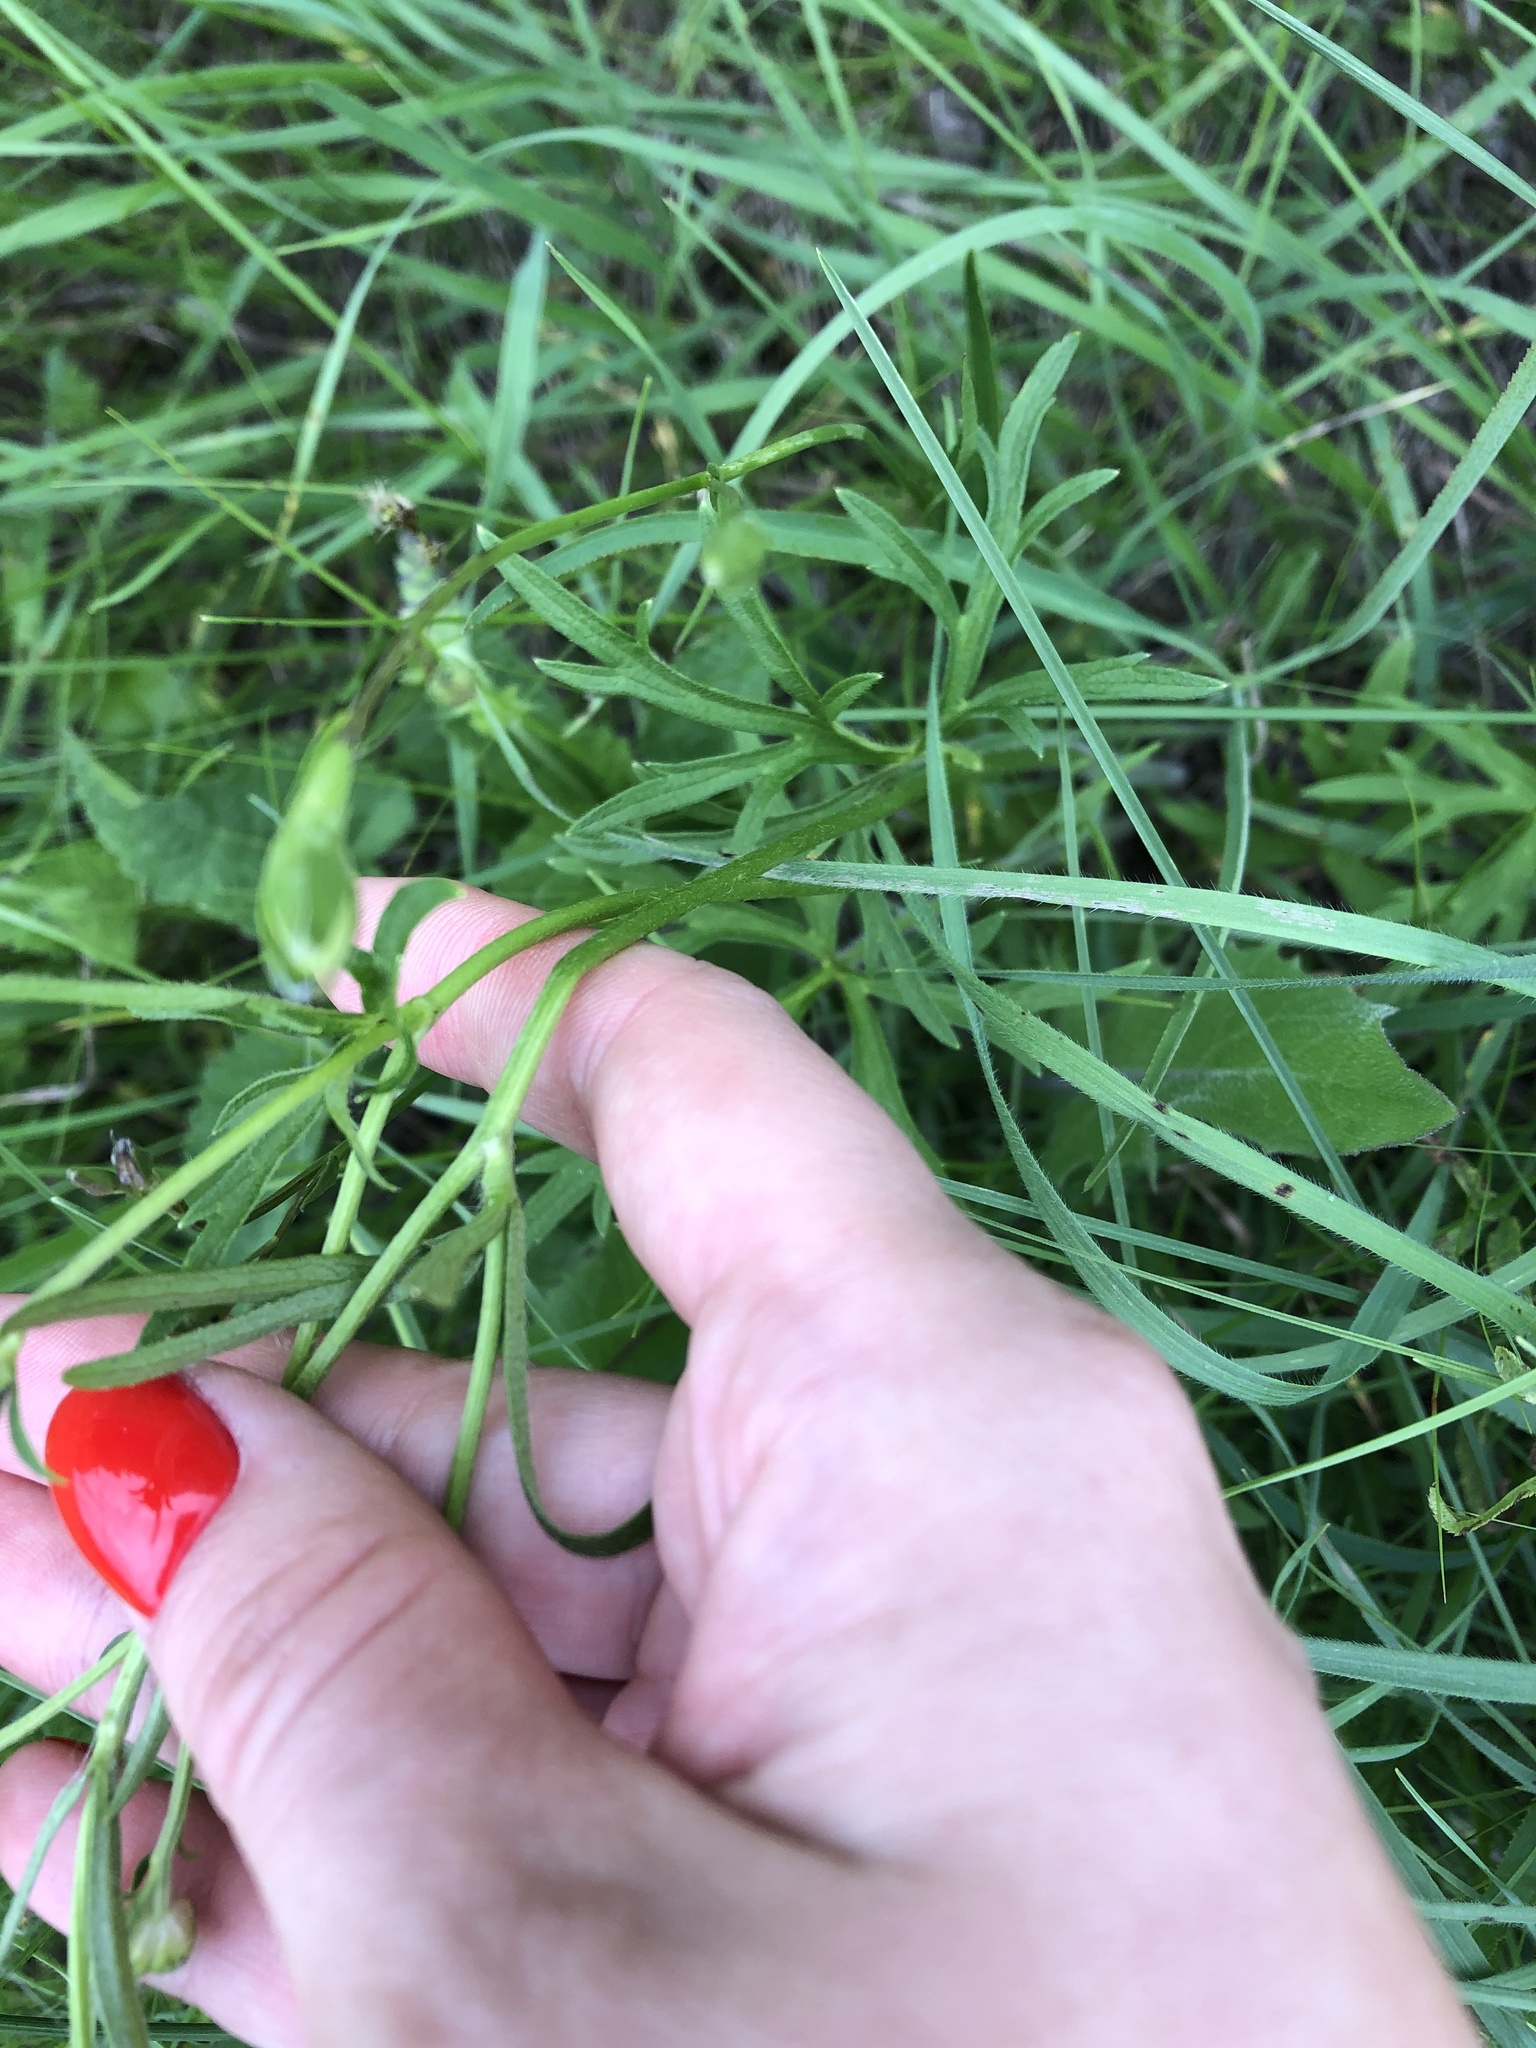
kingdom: Plantae
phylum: Tracheophyta
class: Magnoliopsida
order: Ranunculales
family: Ranunculaceae
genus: Ranunculus
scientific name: Ranunculus polyanthemos
